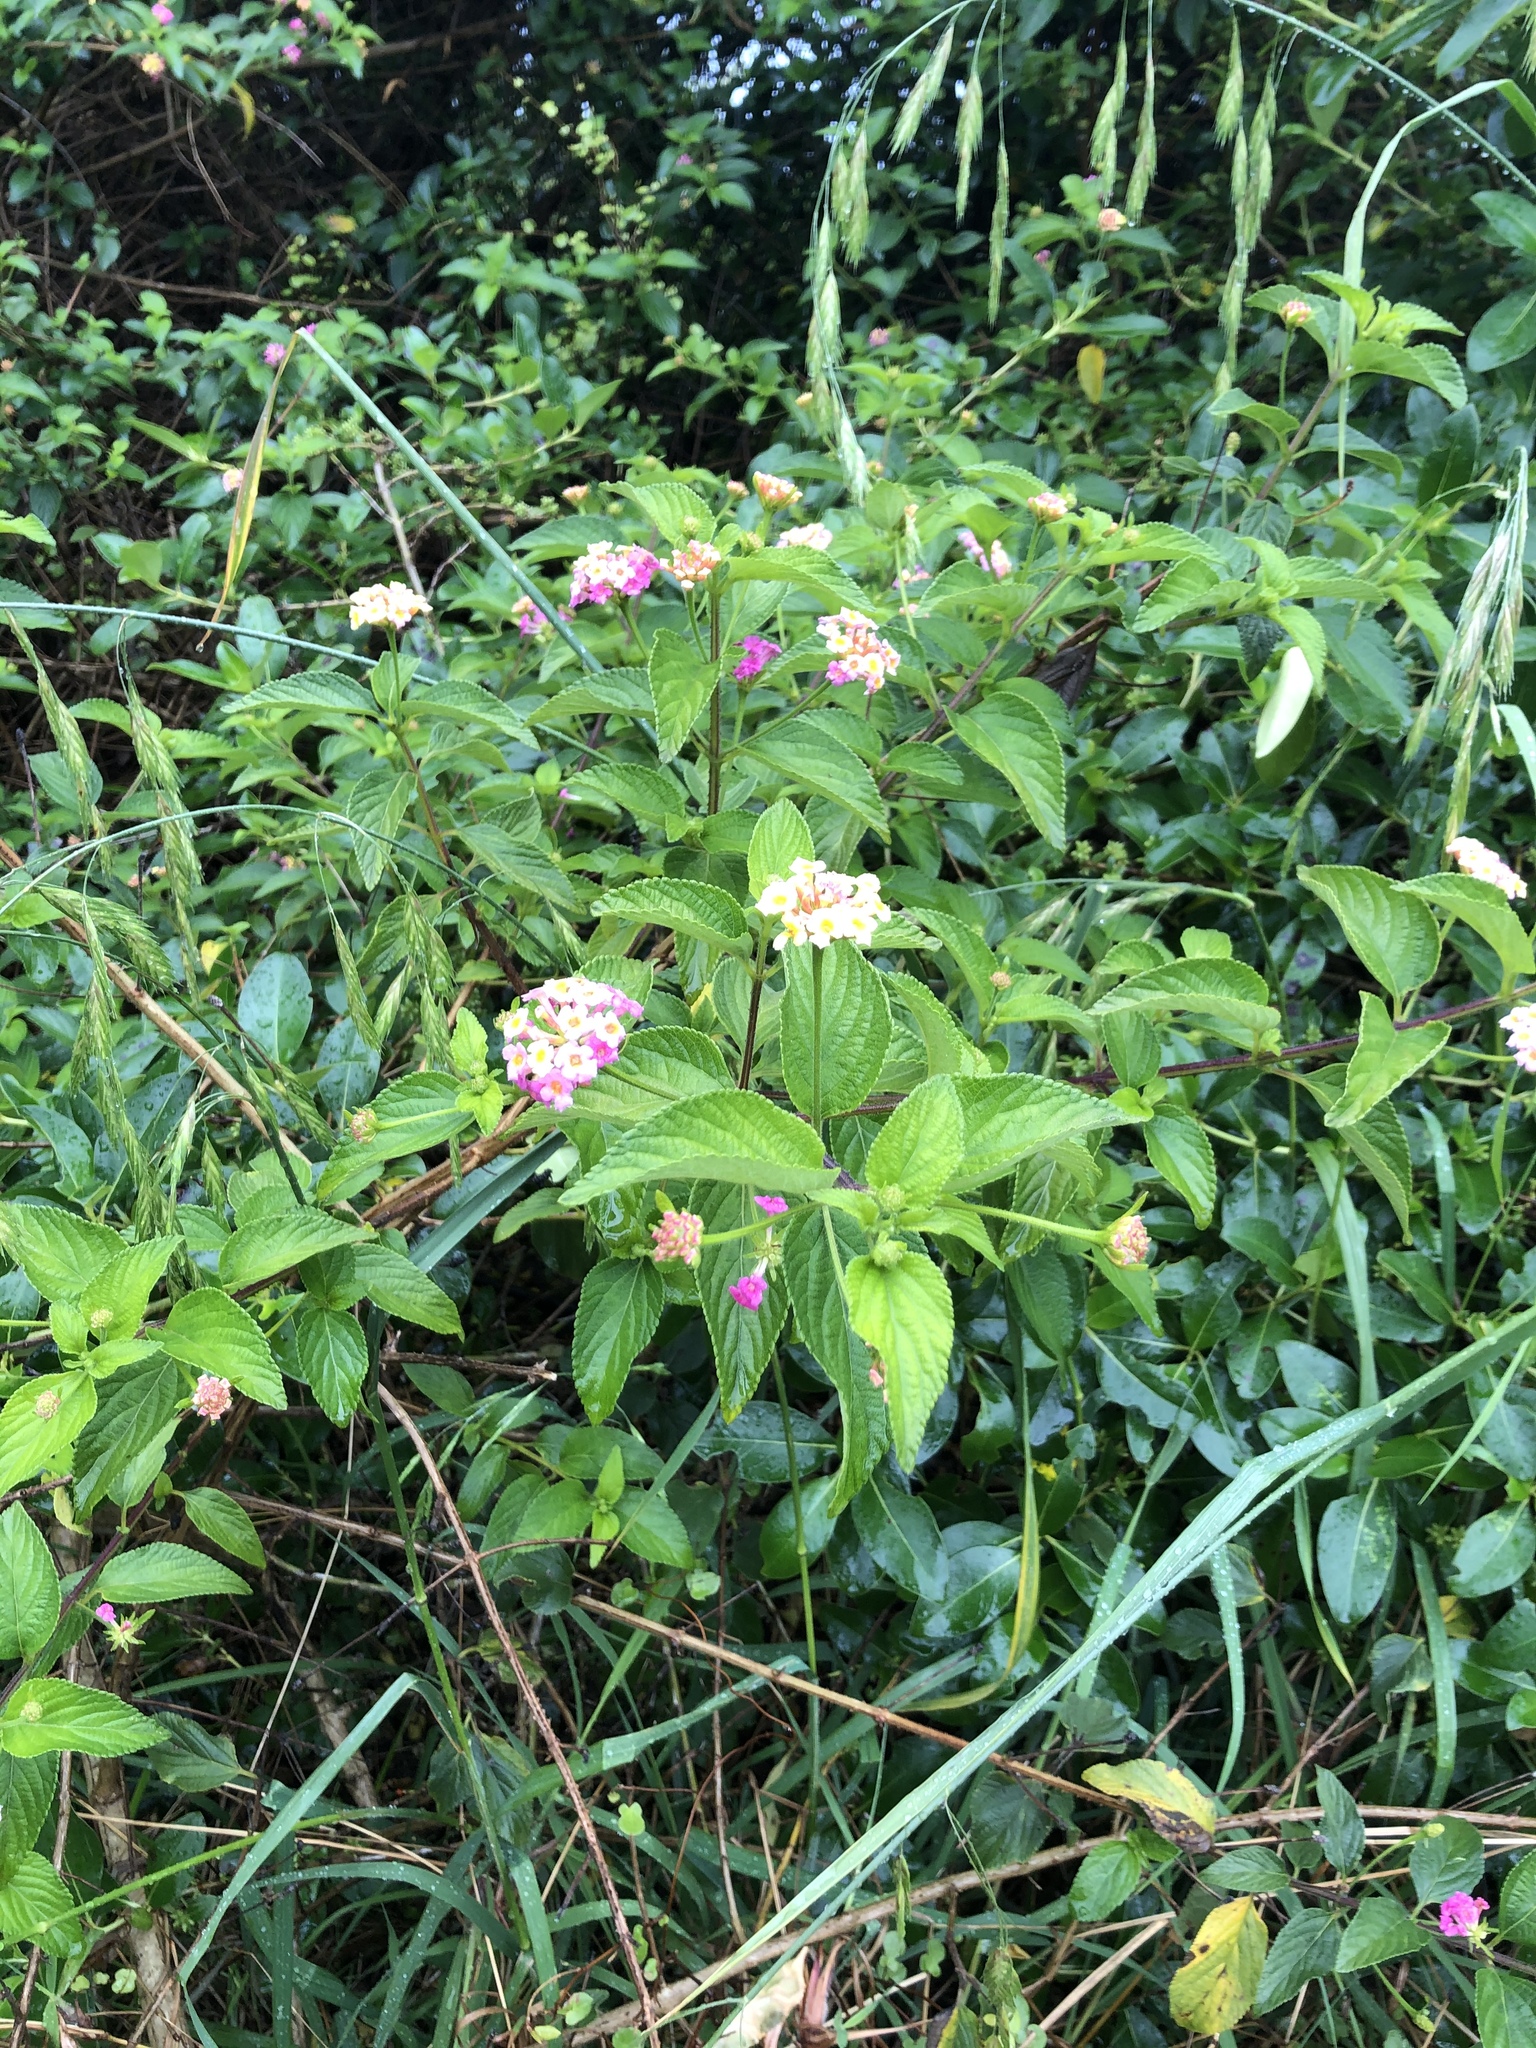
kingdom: Plantae
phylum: Tracheophyta
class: Magnoliopsida
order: Lamiales
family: Verbenaceae
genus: Lantana
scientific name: Lantana camara
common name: Lantana
